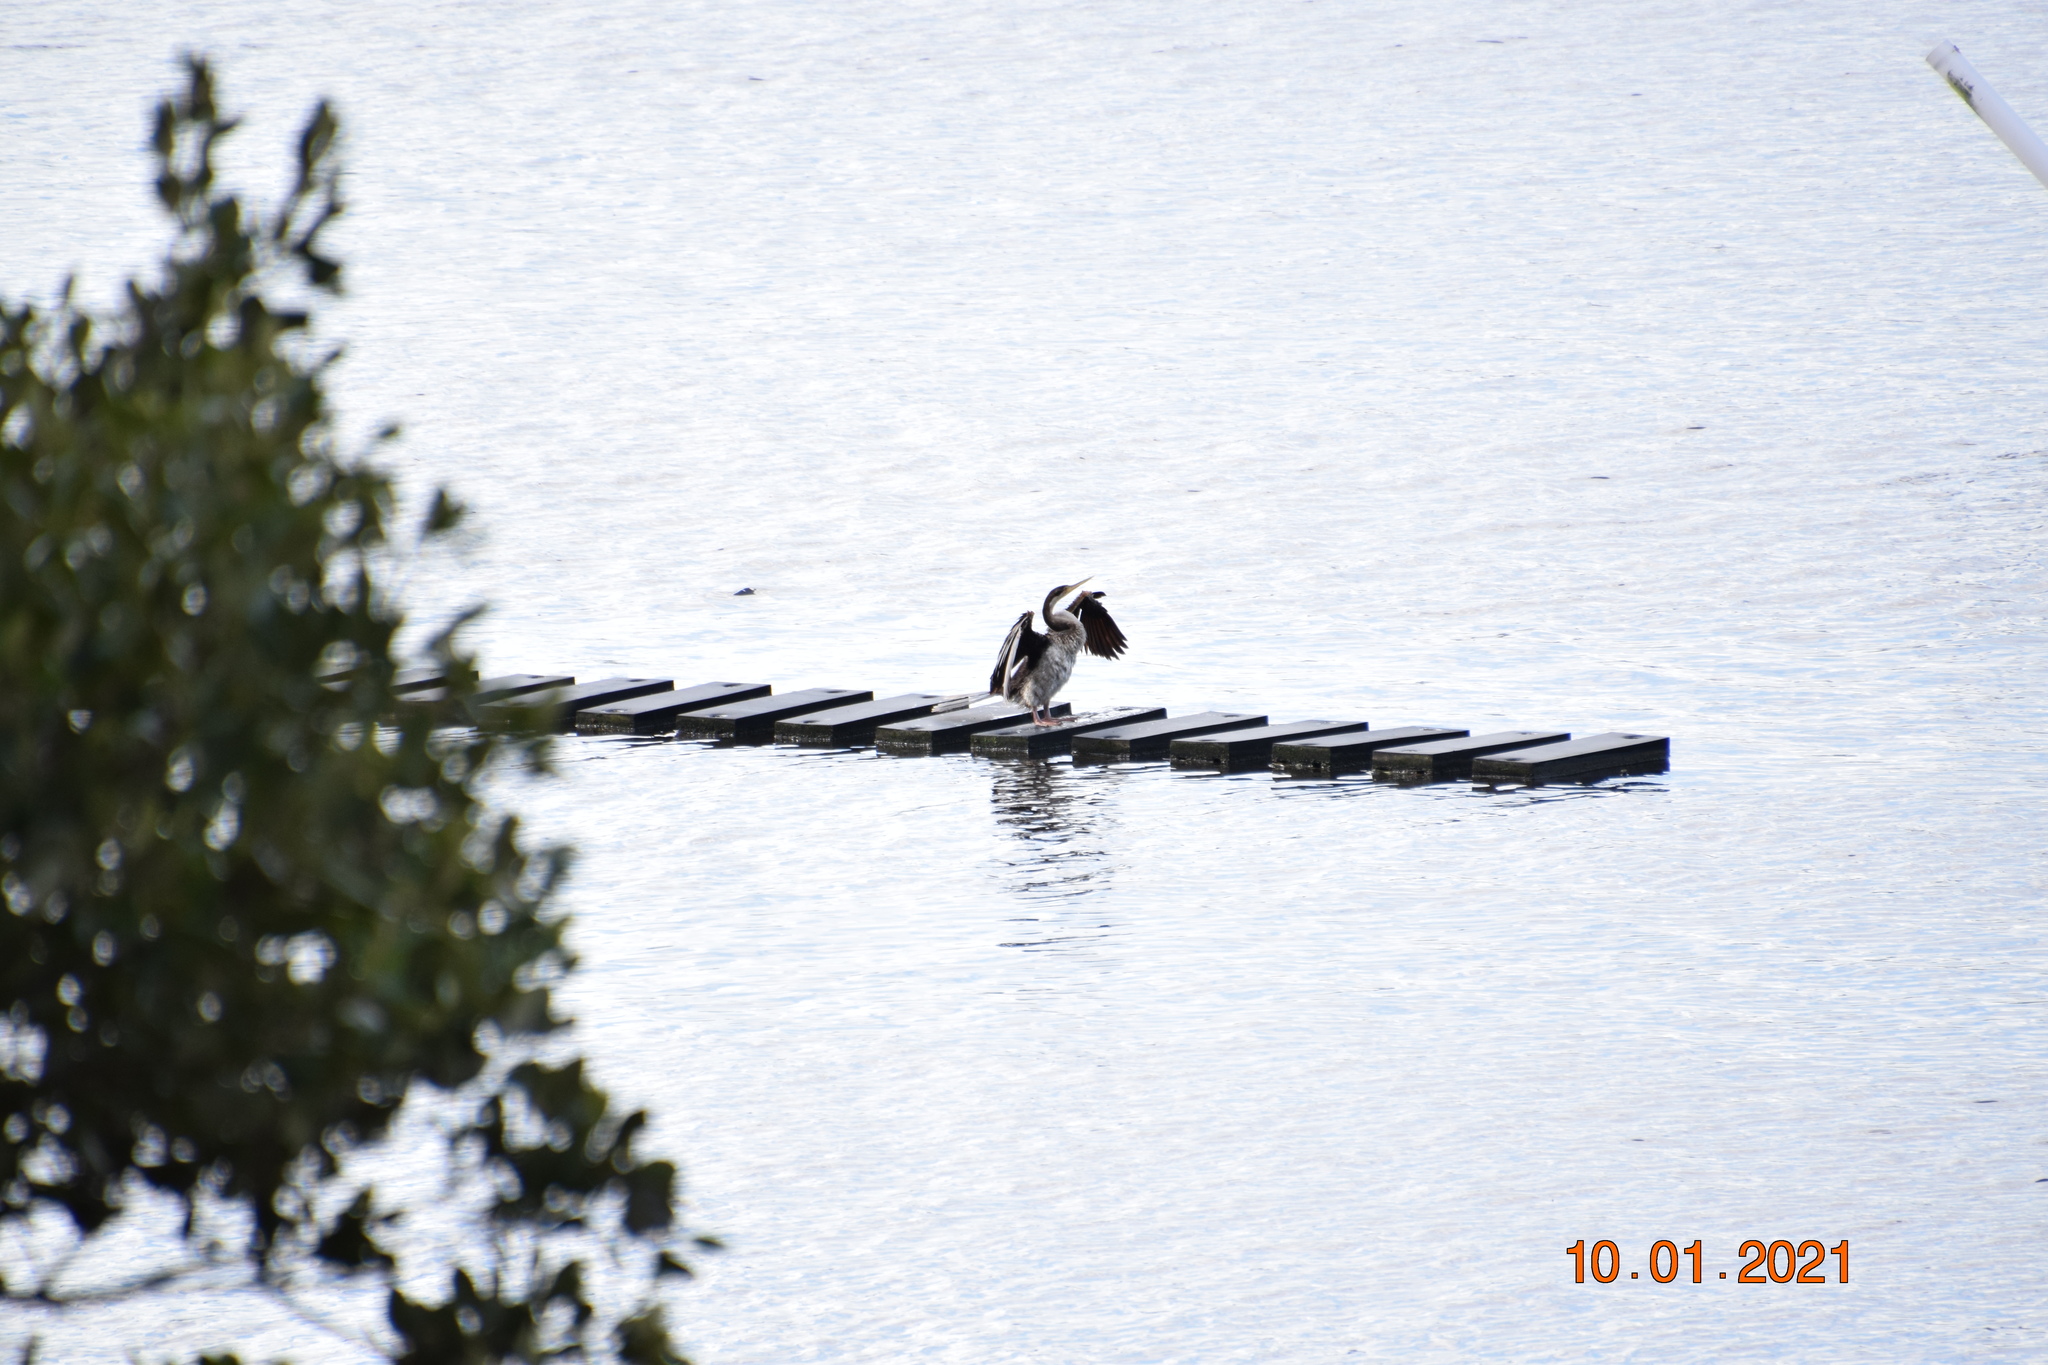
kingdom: Animalia
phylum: Chordata
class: Aves
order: Suliformes
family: Anhingidae
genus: Anhinga
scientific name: Anhinga novaehollandiae
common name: Australasian darter
